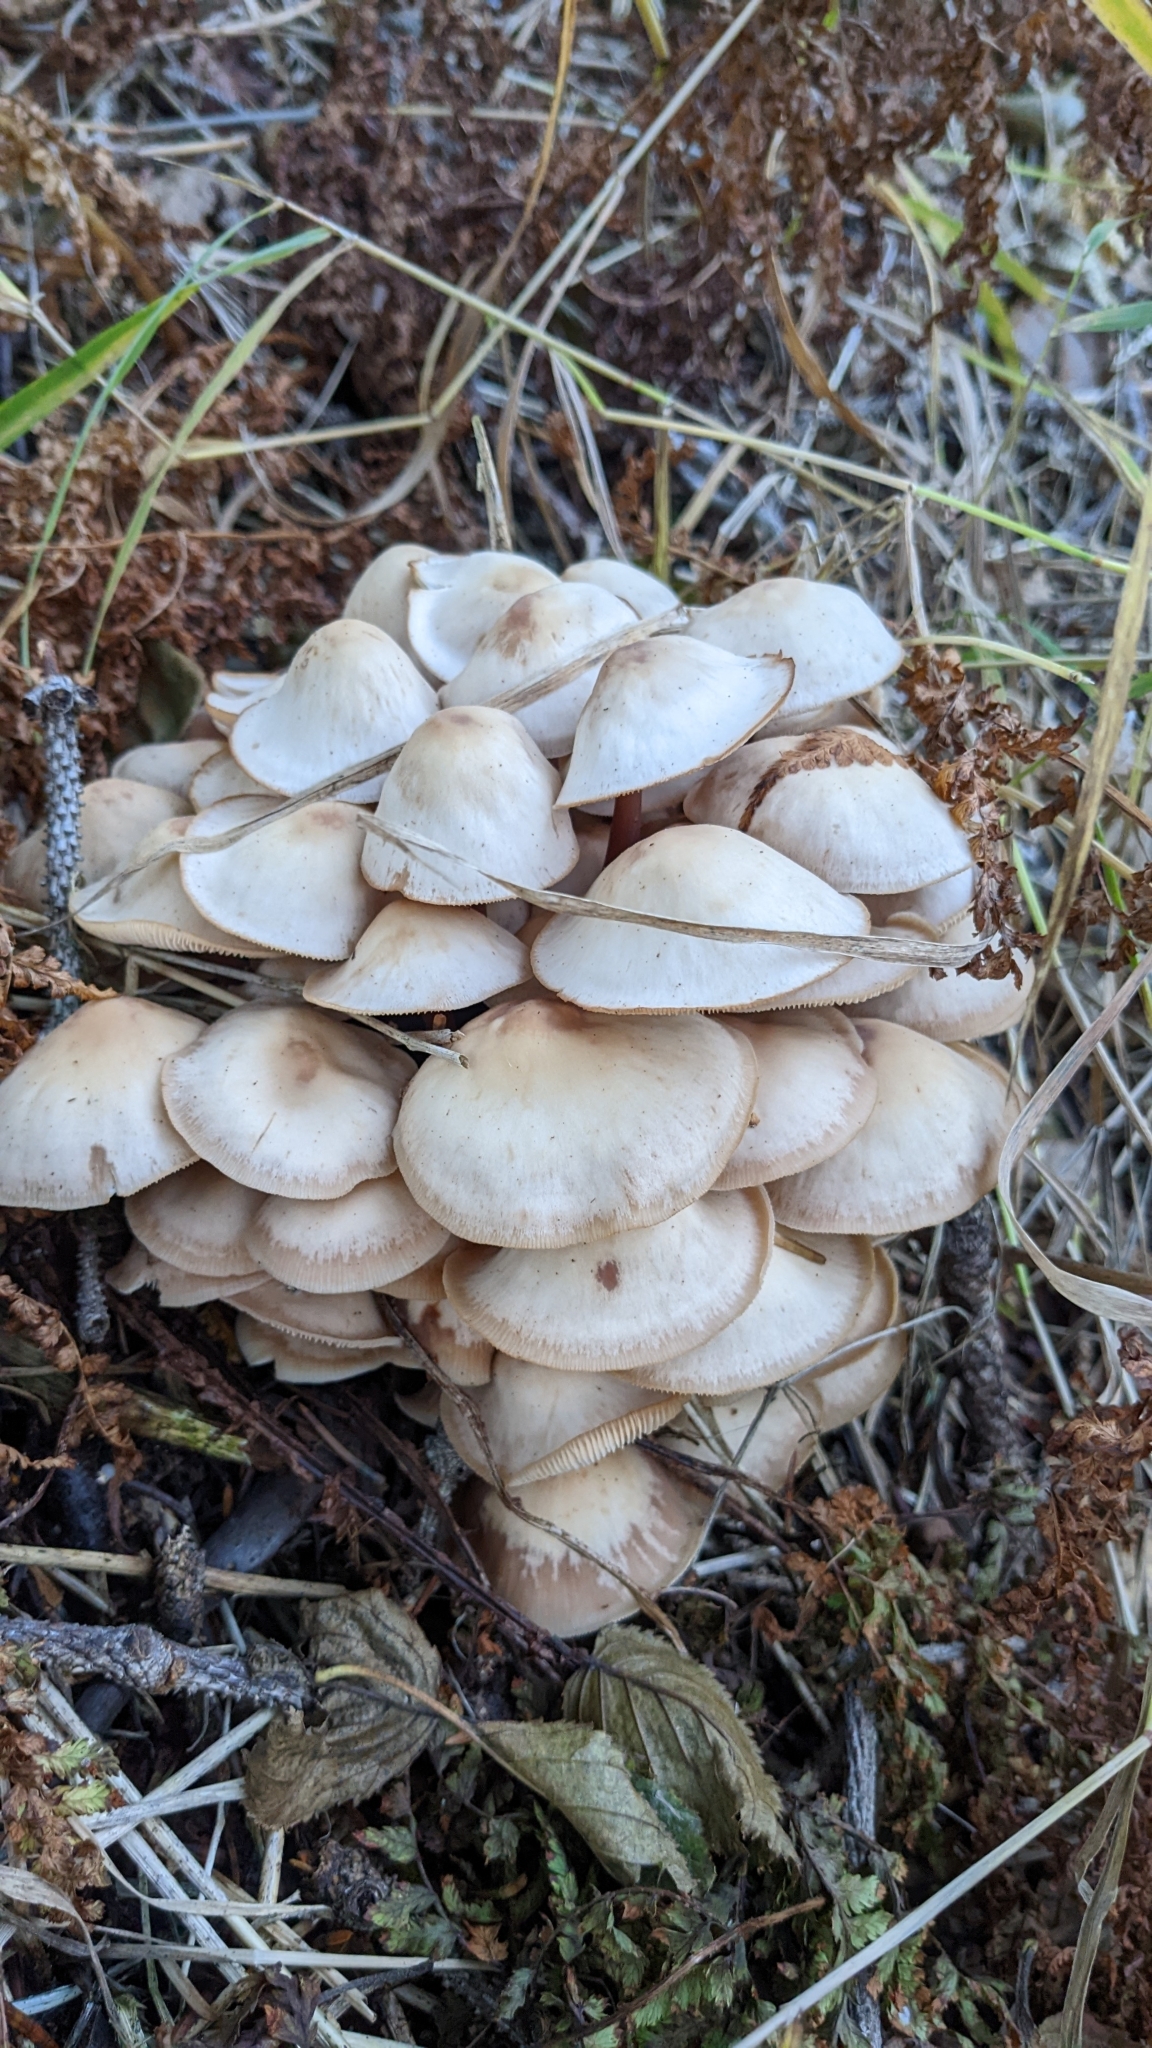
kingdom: Fungi
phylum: Basidiomycota
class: Agaricomycetes
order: Agaricales
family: Omphalotaceae
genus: Connopus
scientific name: Connopus acervatus
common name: Cluster cap
